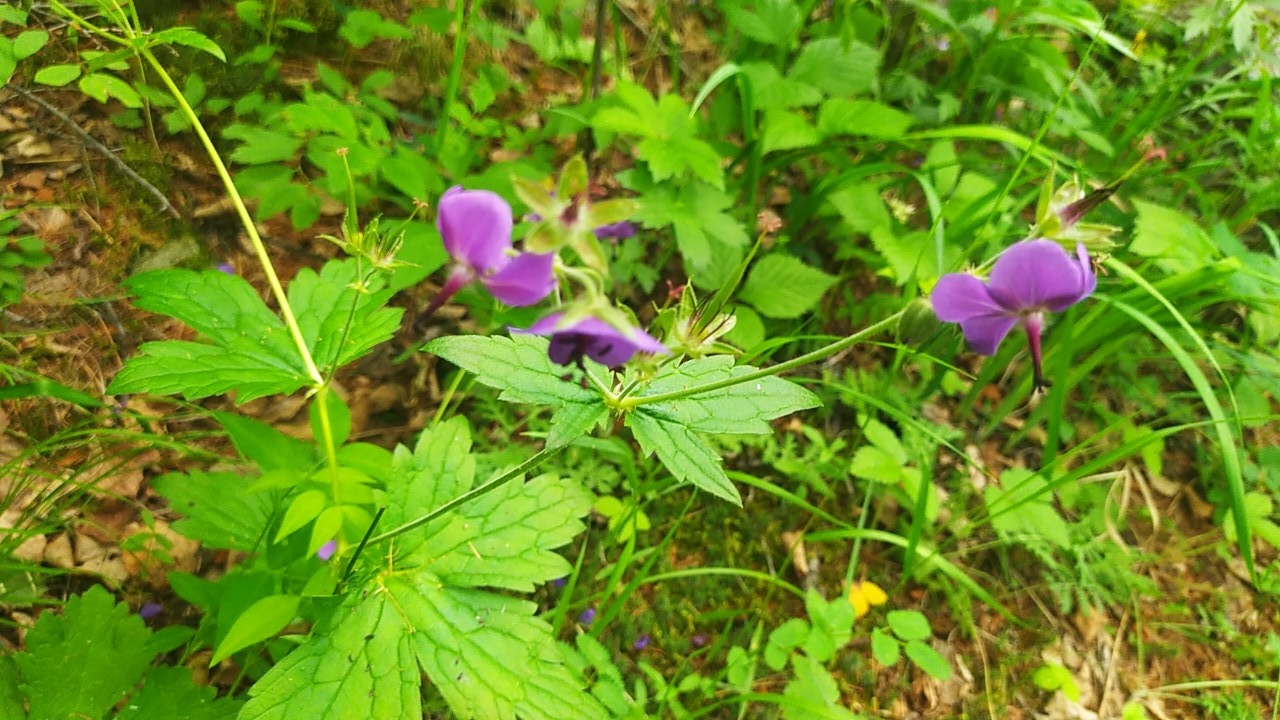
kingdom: Plantae
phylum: Tracheophyta
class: Magnoliopsida
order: Geraniales
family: Geraniaceae
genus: Geranium
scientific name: Geranium platyanthum
